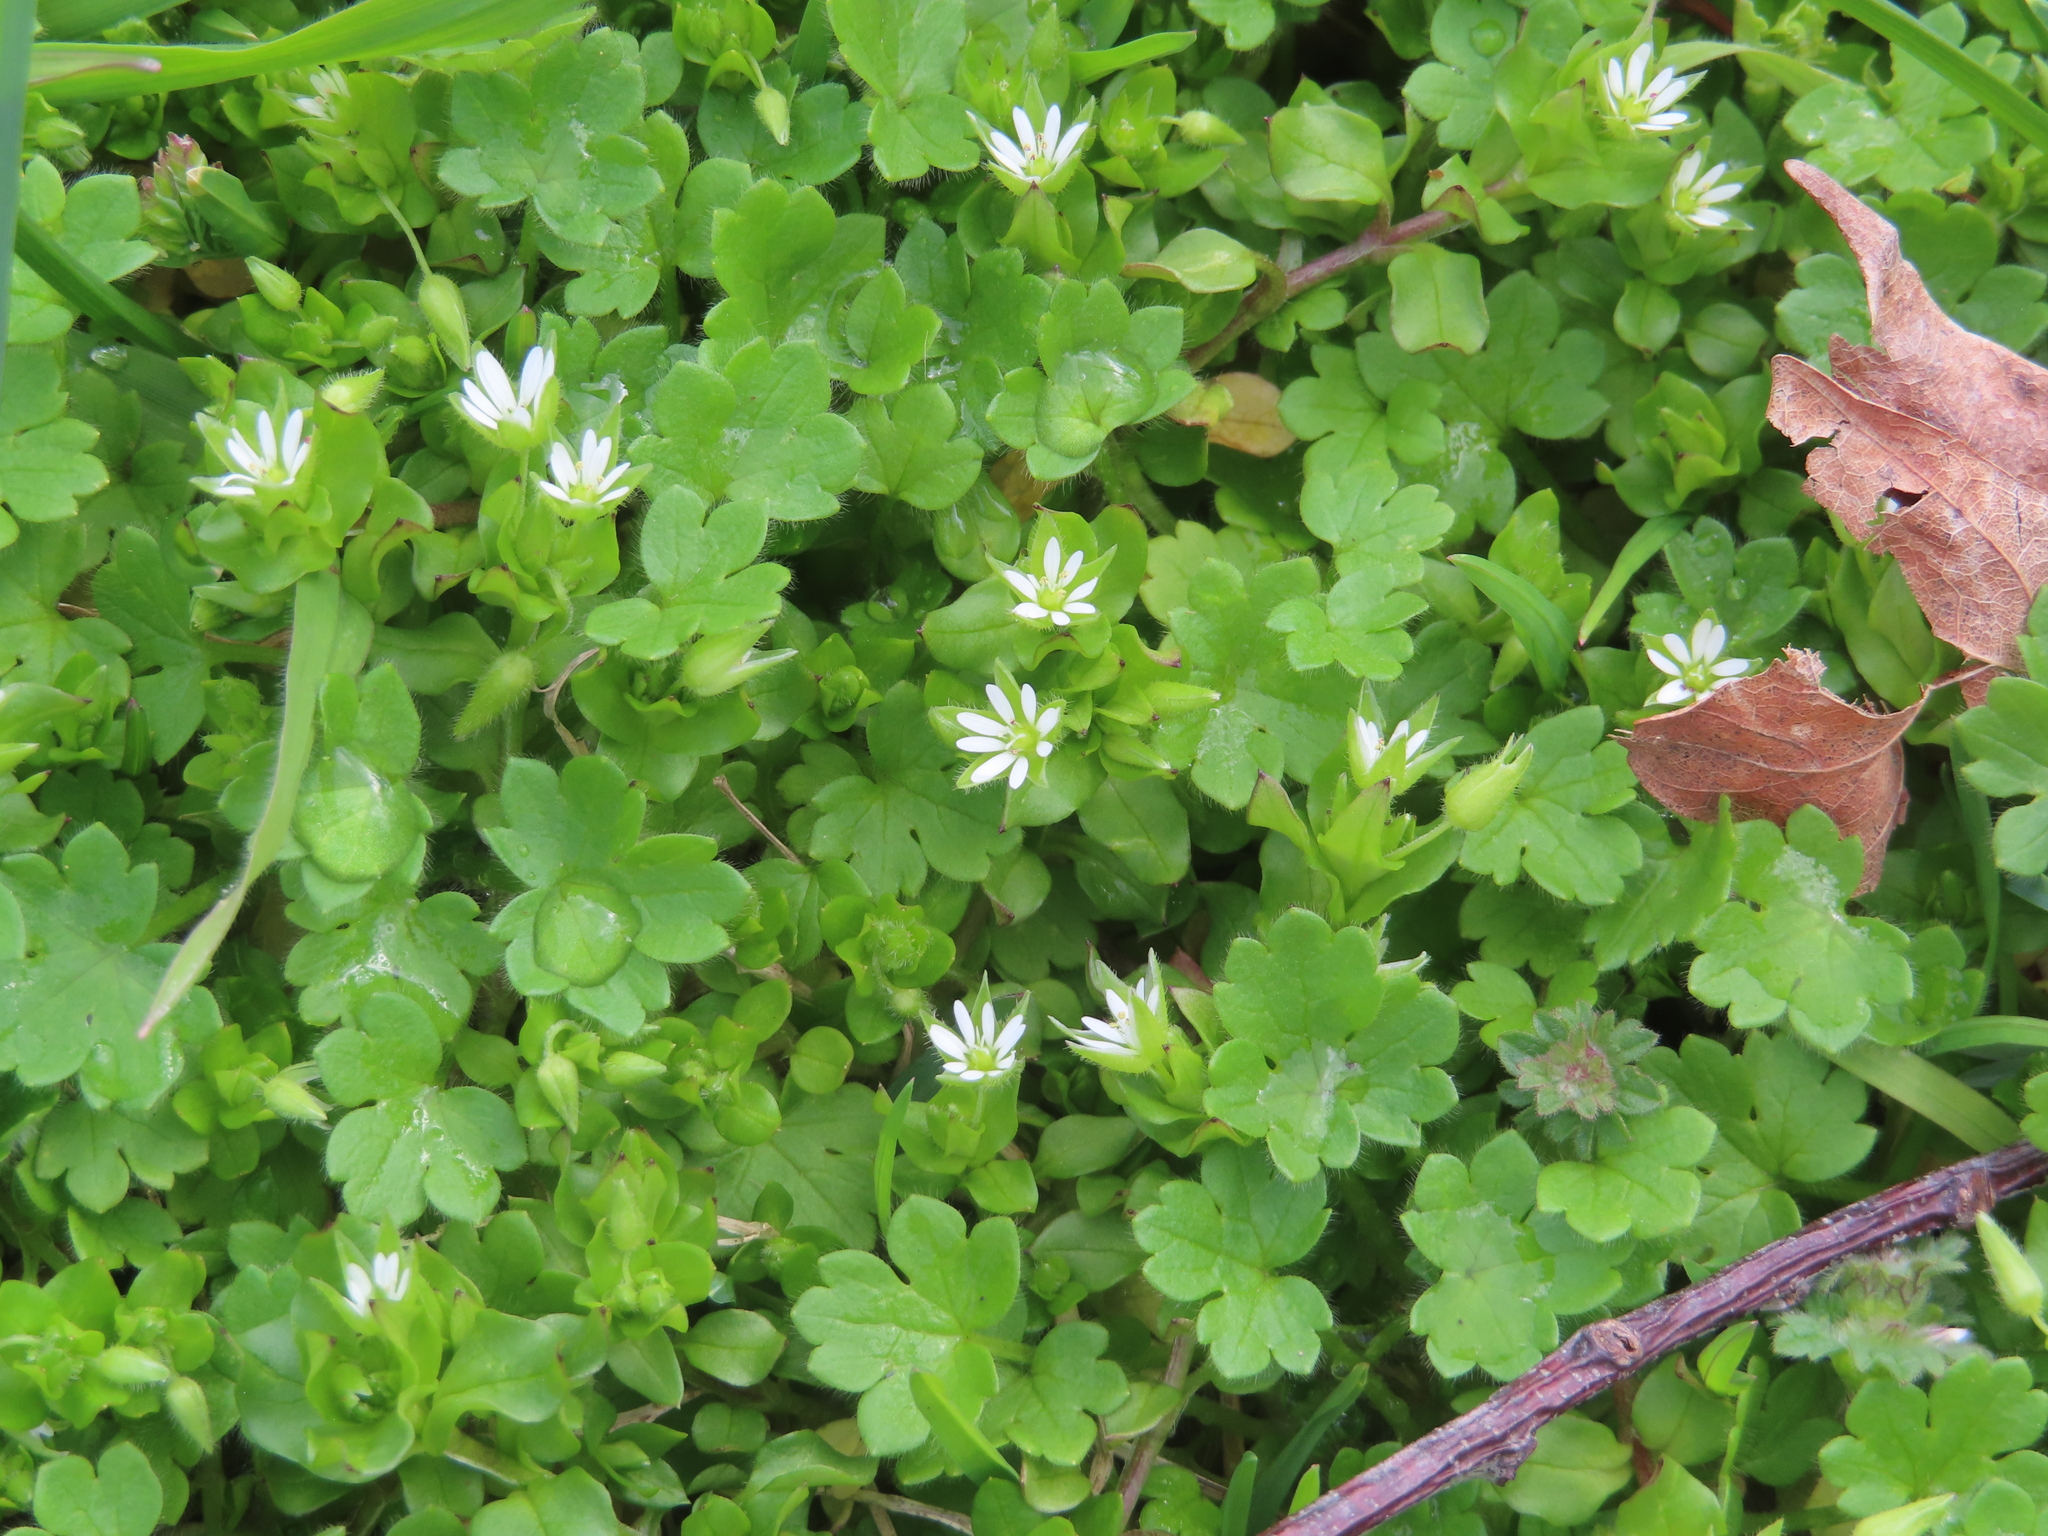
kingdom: Plantae
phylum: Tracheophyta
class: Magnoliopsida
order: Caryophyllales
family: Caryophyllaceae
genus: Stellaria
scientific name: Stellaria media
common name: Common chickweed
